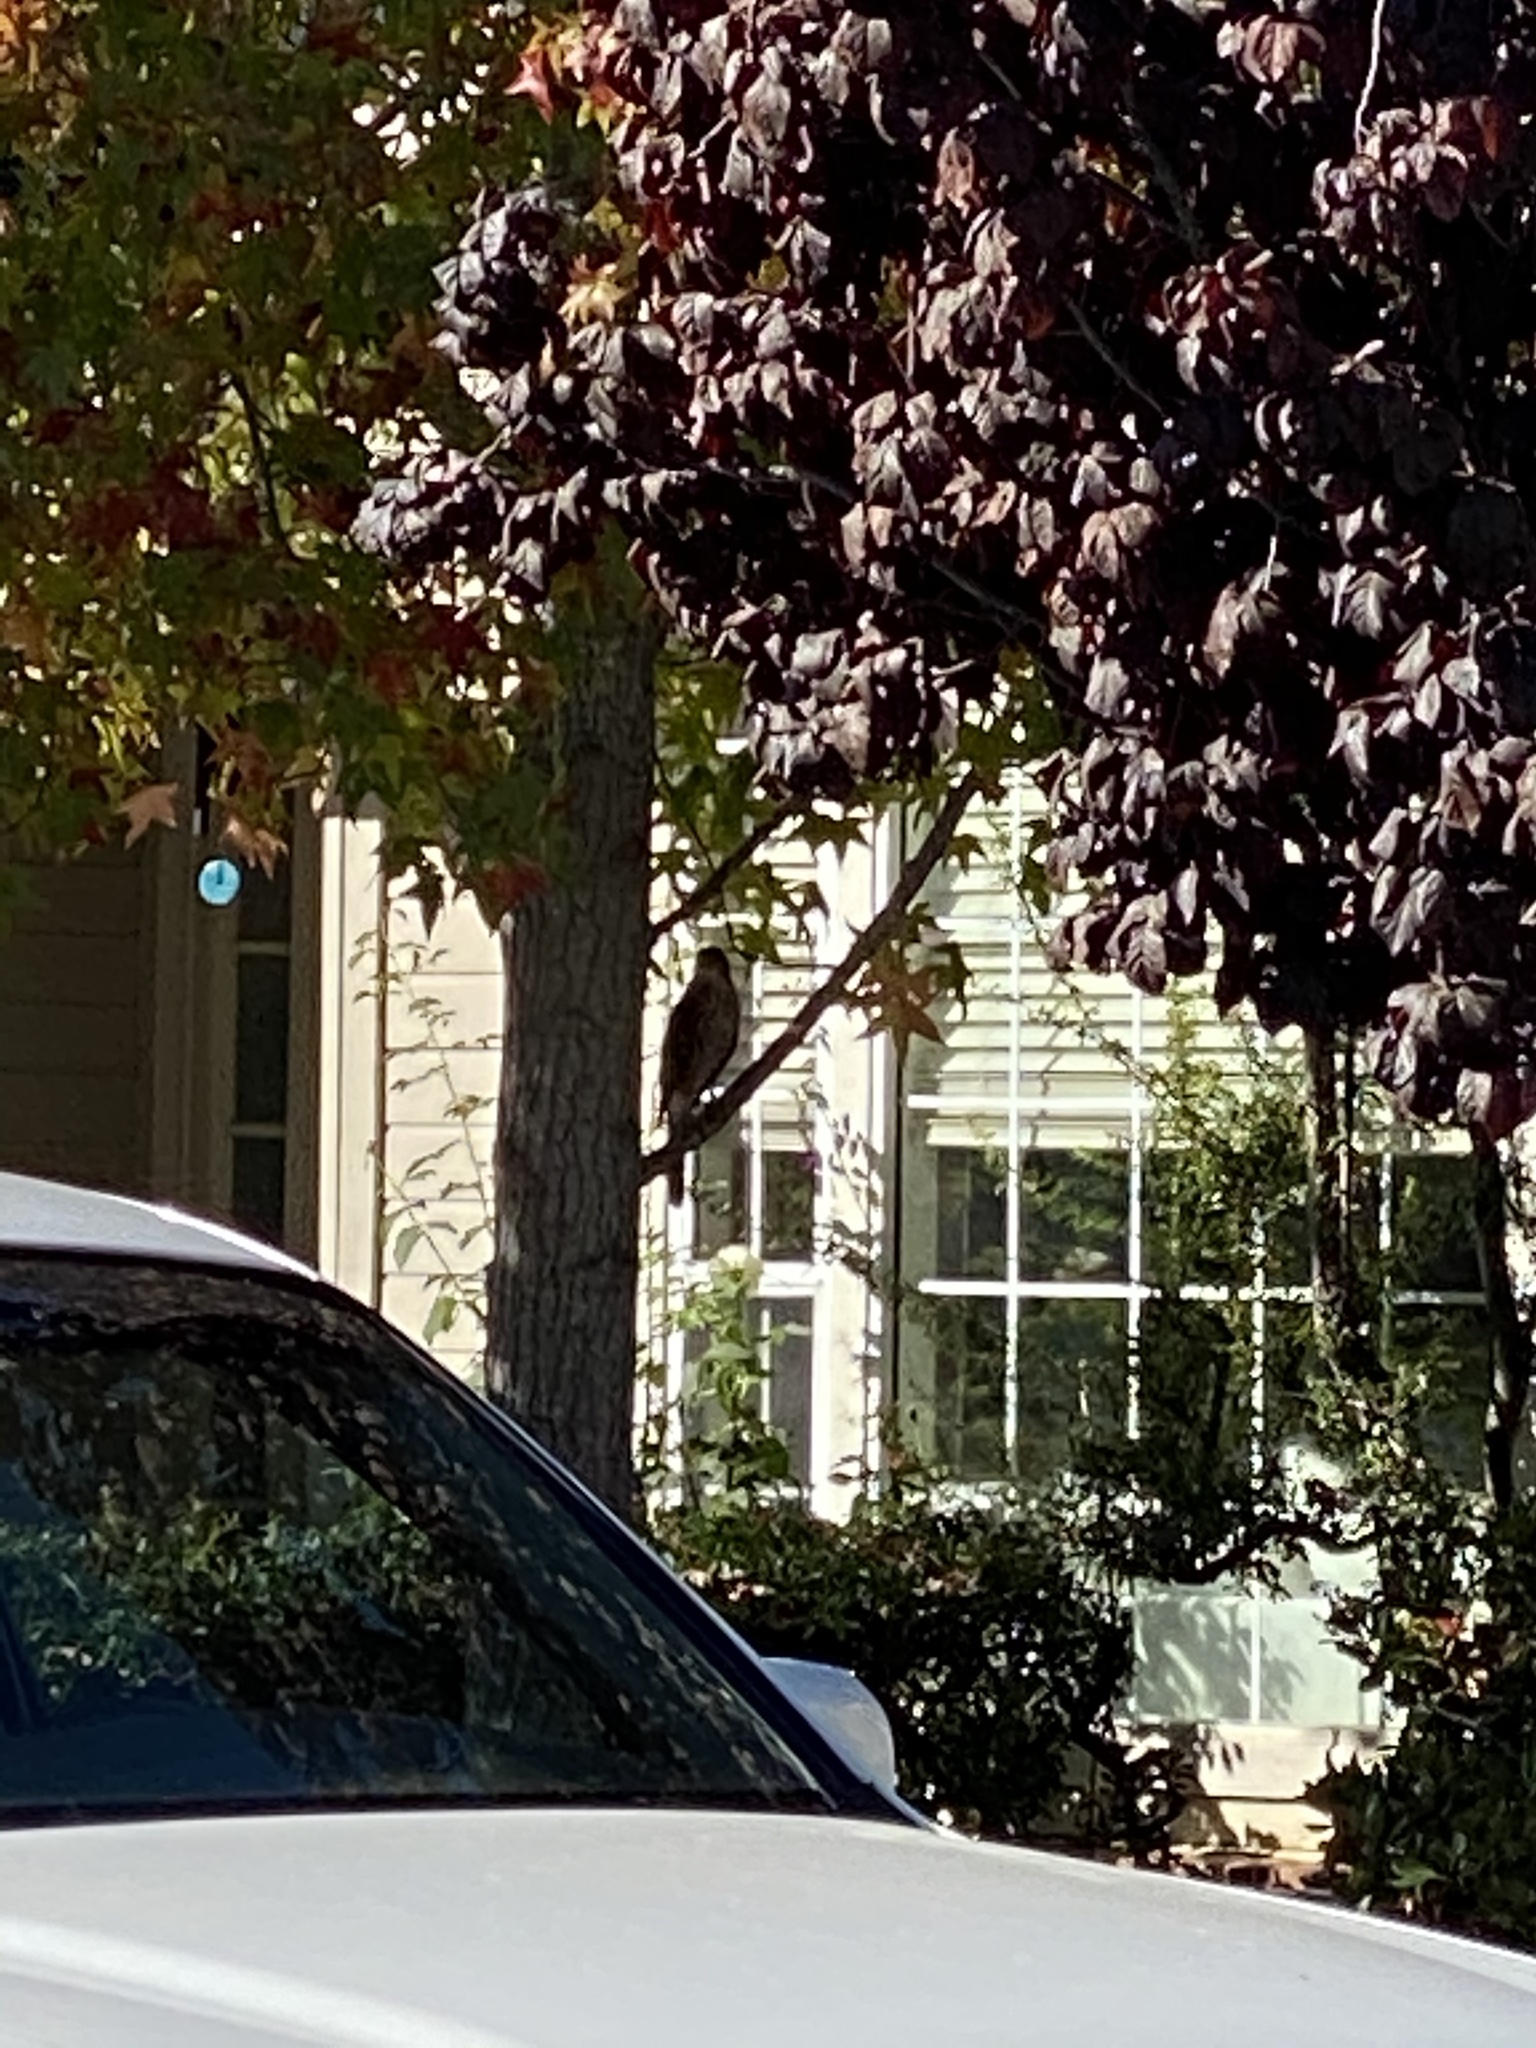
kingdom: Animalia
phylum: Chordata
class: Aves
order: Accipitriformes
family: Accipitridae
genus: Accipiter
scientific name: Accipiter cooperii
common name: Cooper's hawk
